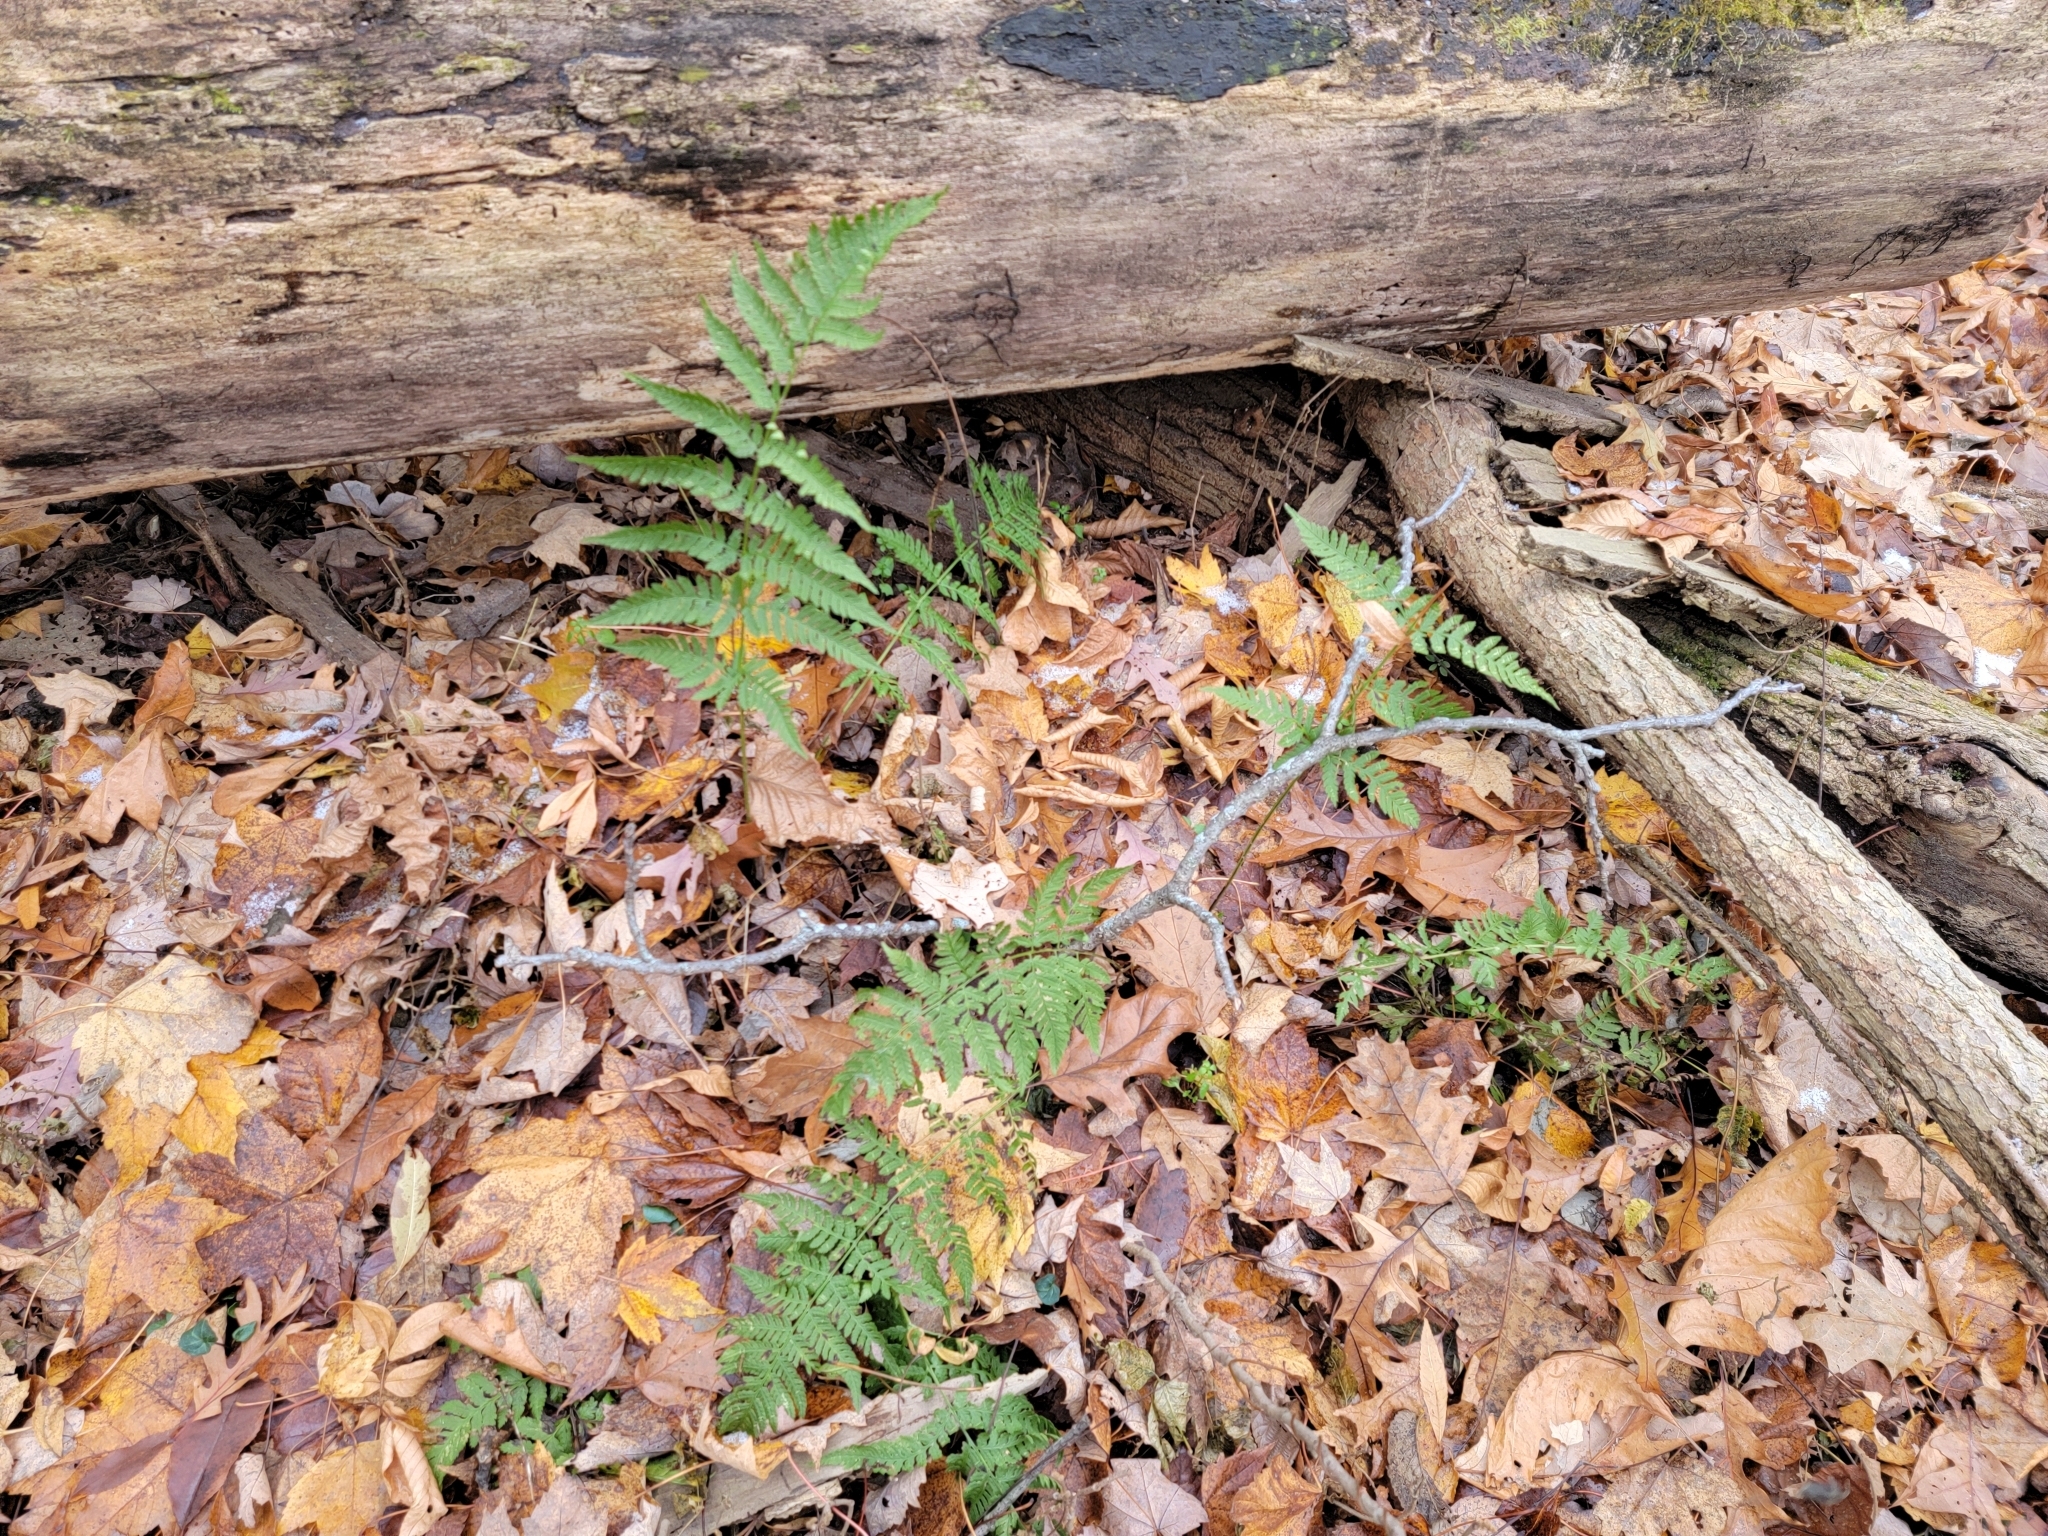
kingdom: Plantae
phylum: Tracheophyta
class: Polypodiopsida
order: Polypodiales
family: Dryopteridaceae
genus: Dryopteris
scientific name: Dryopteris carthusiana
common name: Narrow buckler-fern
